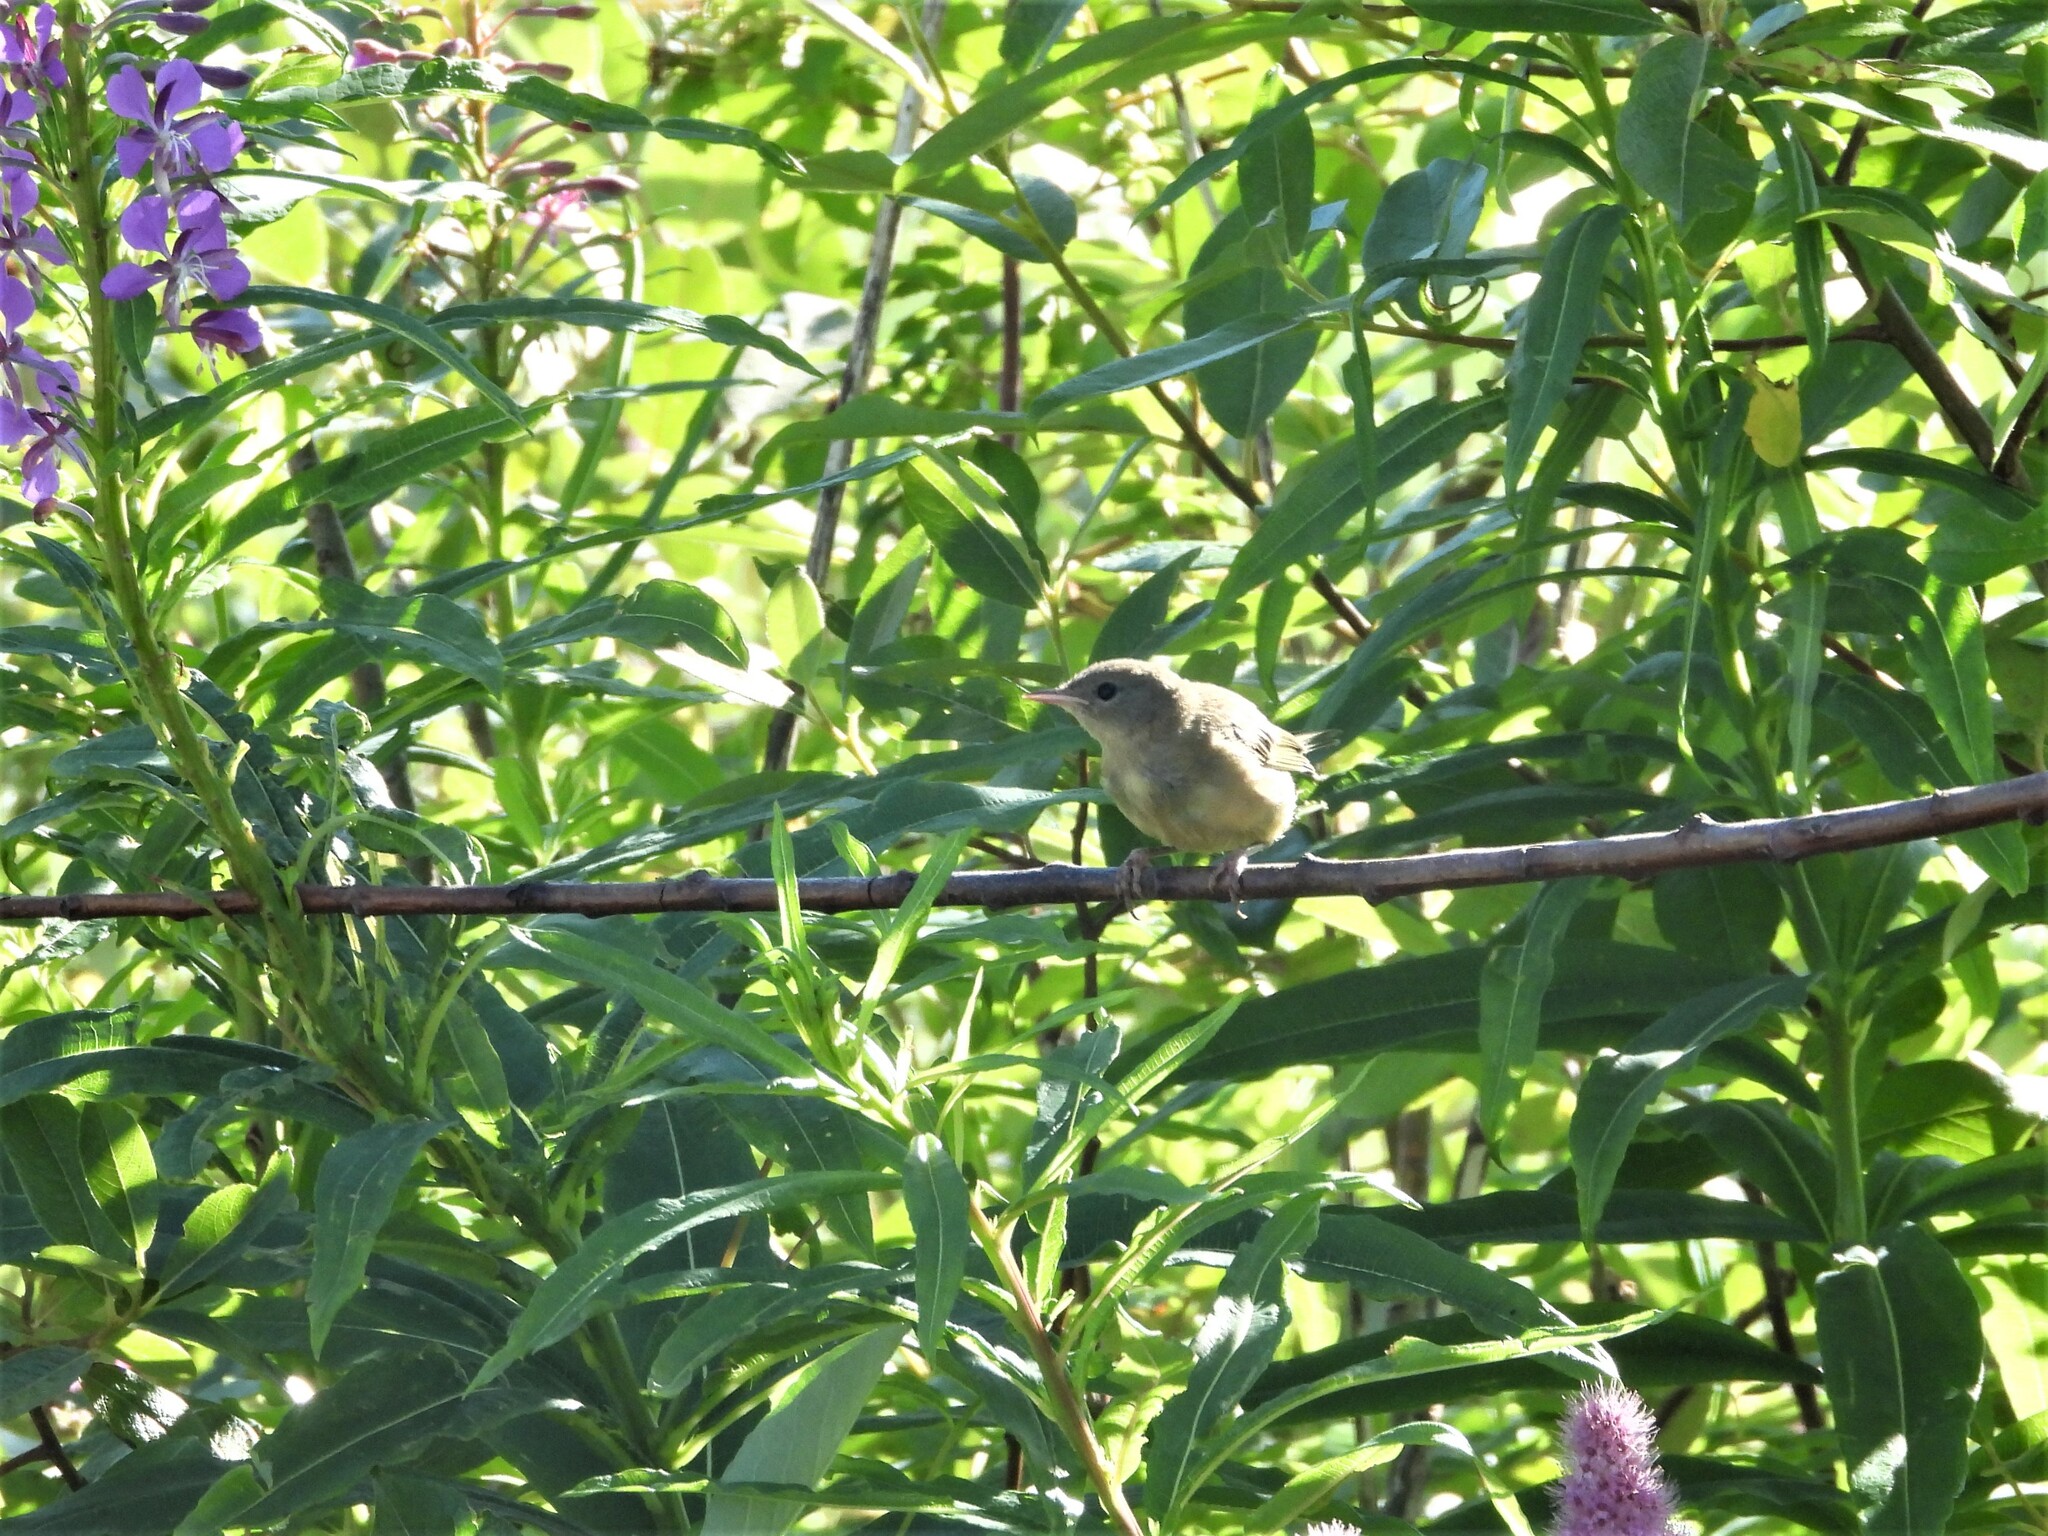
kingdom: Animalia
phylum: Chordata
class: Aves
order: Passeriformes
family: Parulidae
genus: Geothlypis
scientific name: Geothlypis trichas
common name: Common yellowthroat
